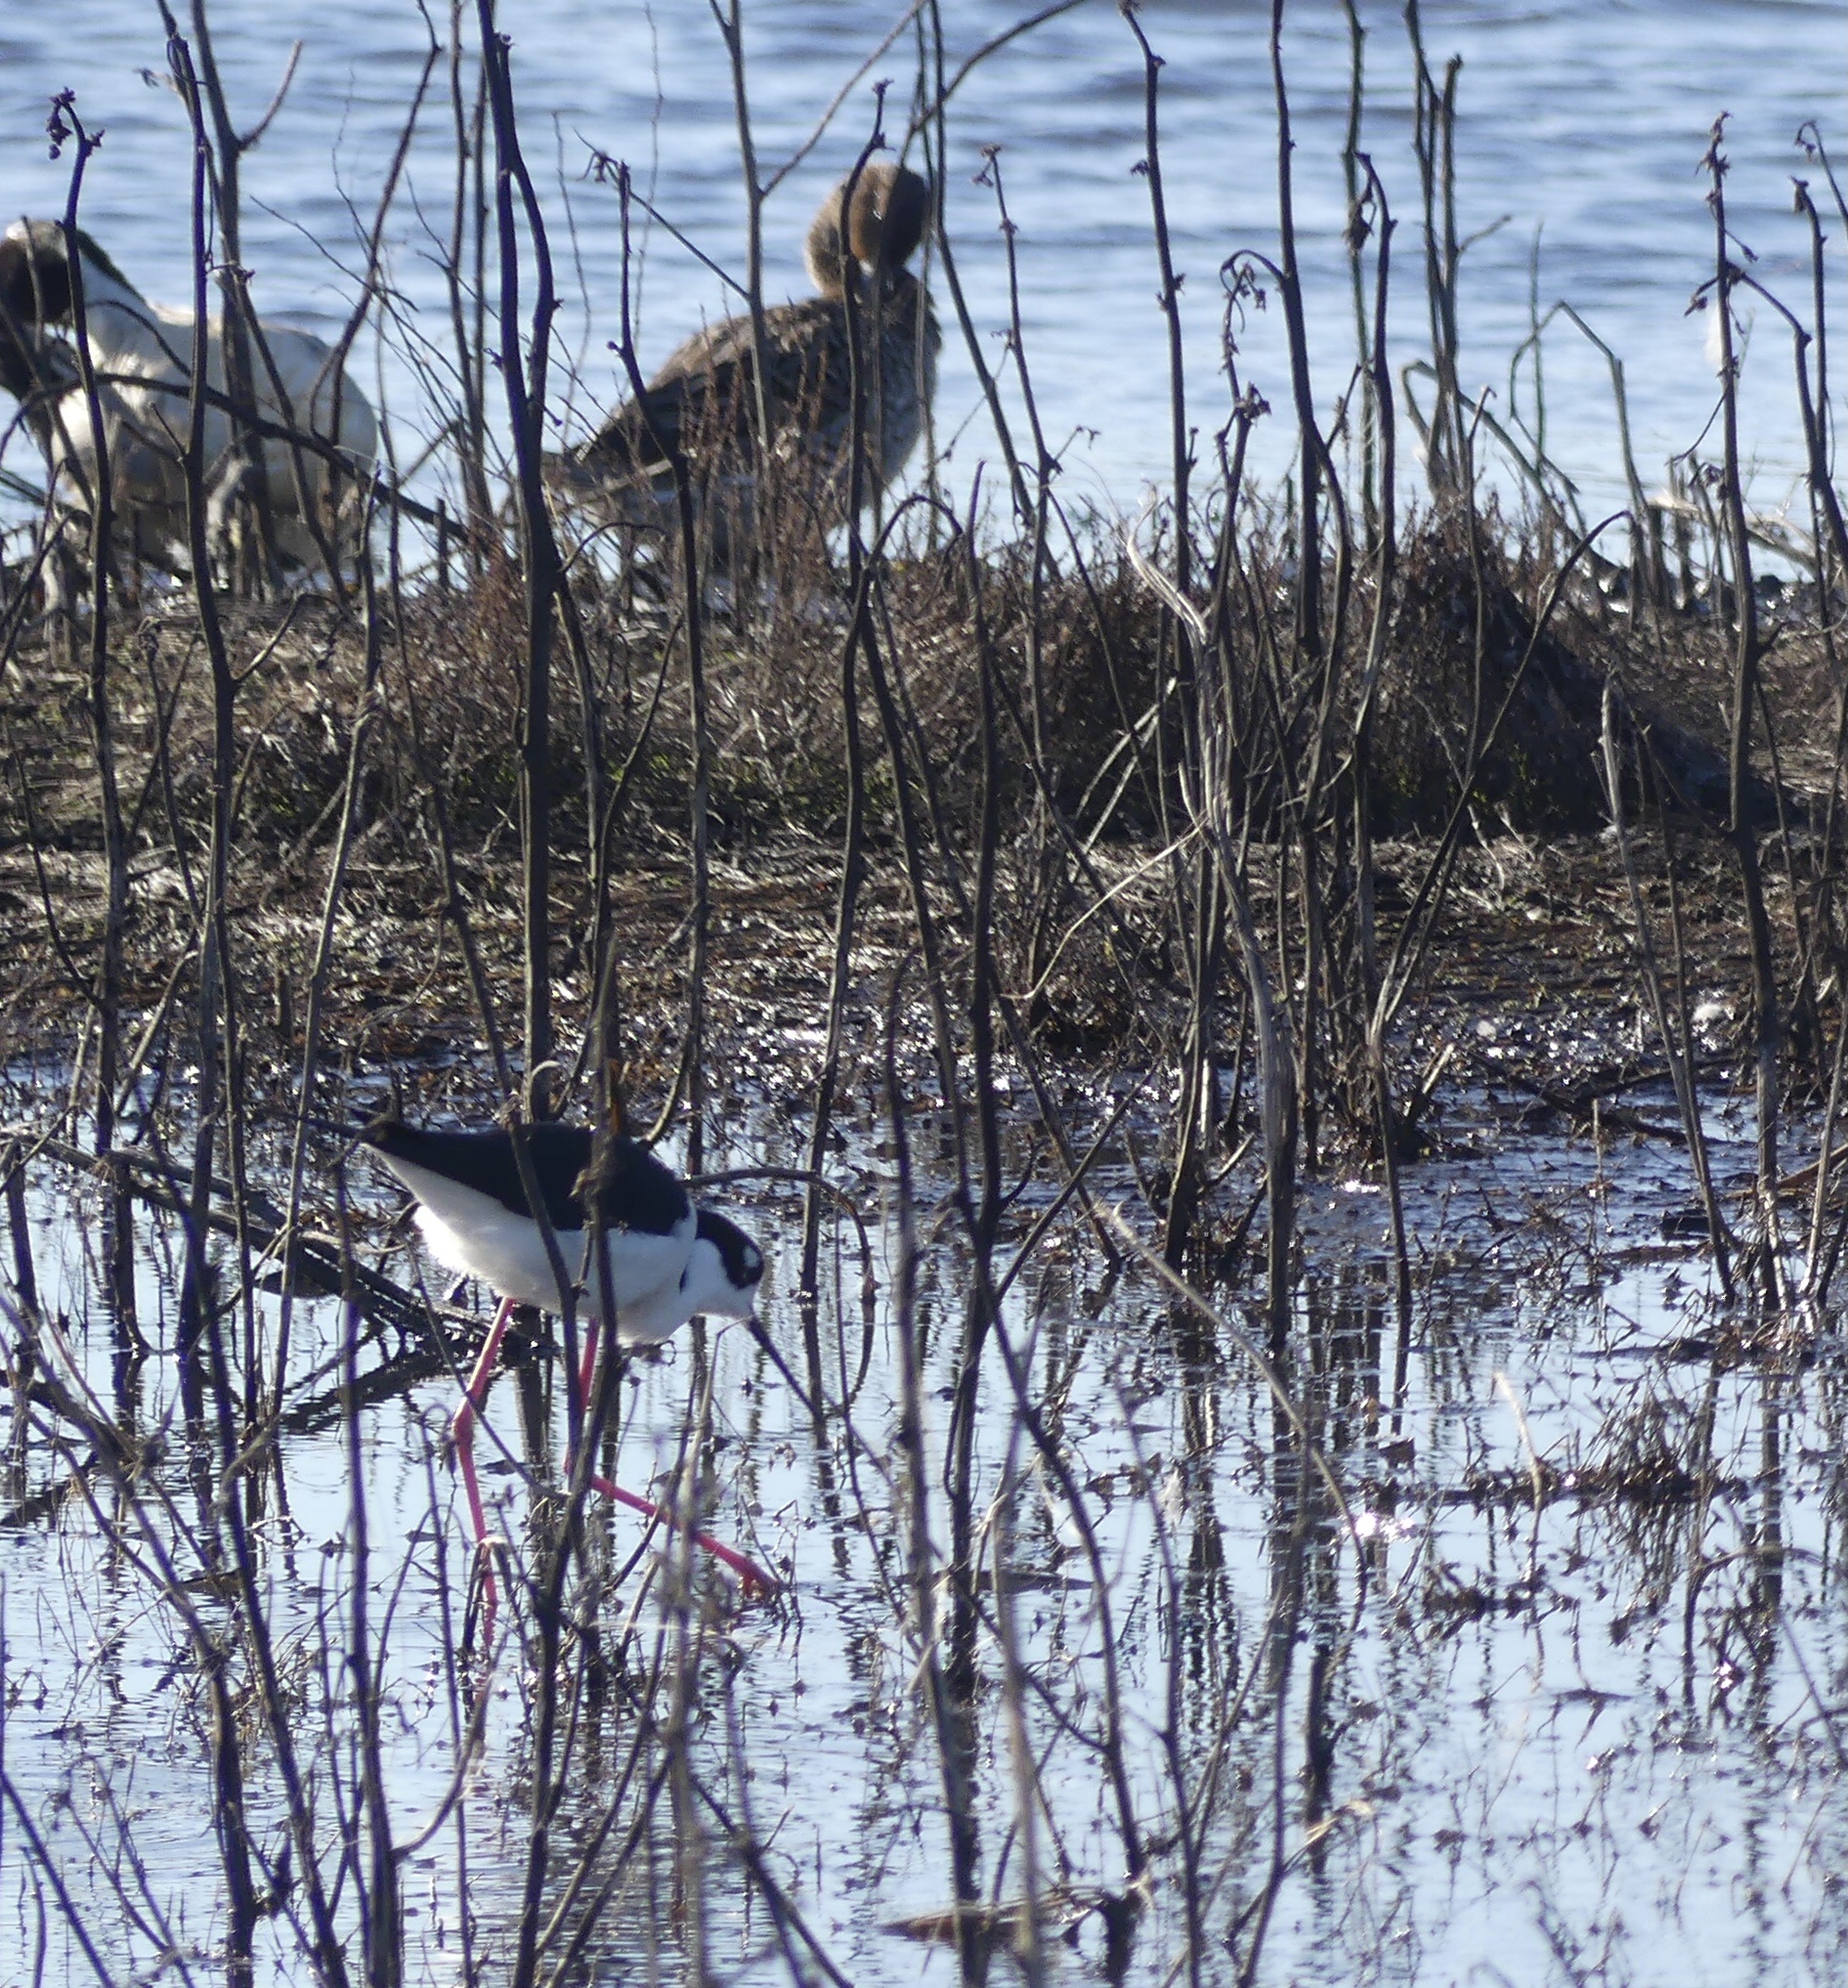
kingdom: Animalia
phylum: Chordata
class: Aves
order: Charadriiformes
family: Recurvirostridae
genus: Himantopus
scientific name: Himantopus mexicanus
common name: Black-necked stilt
